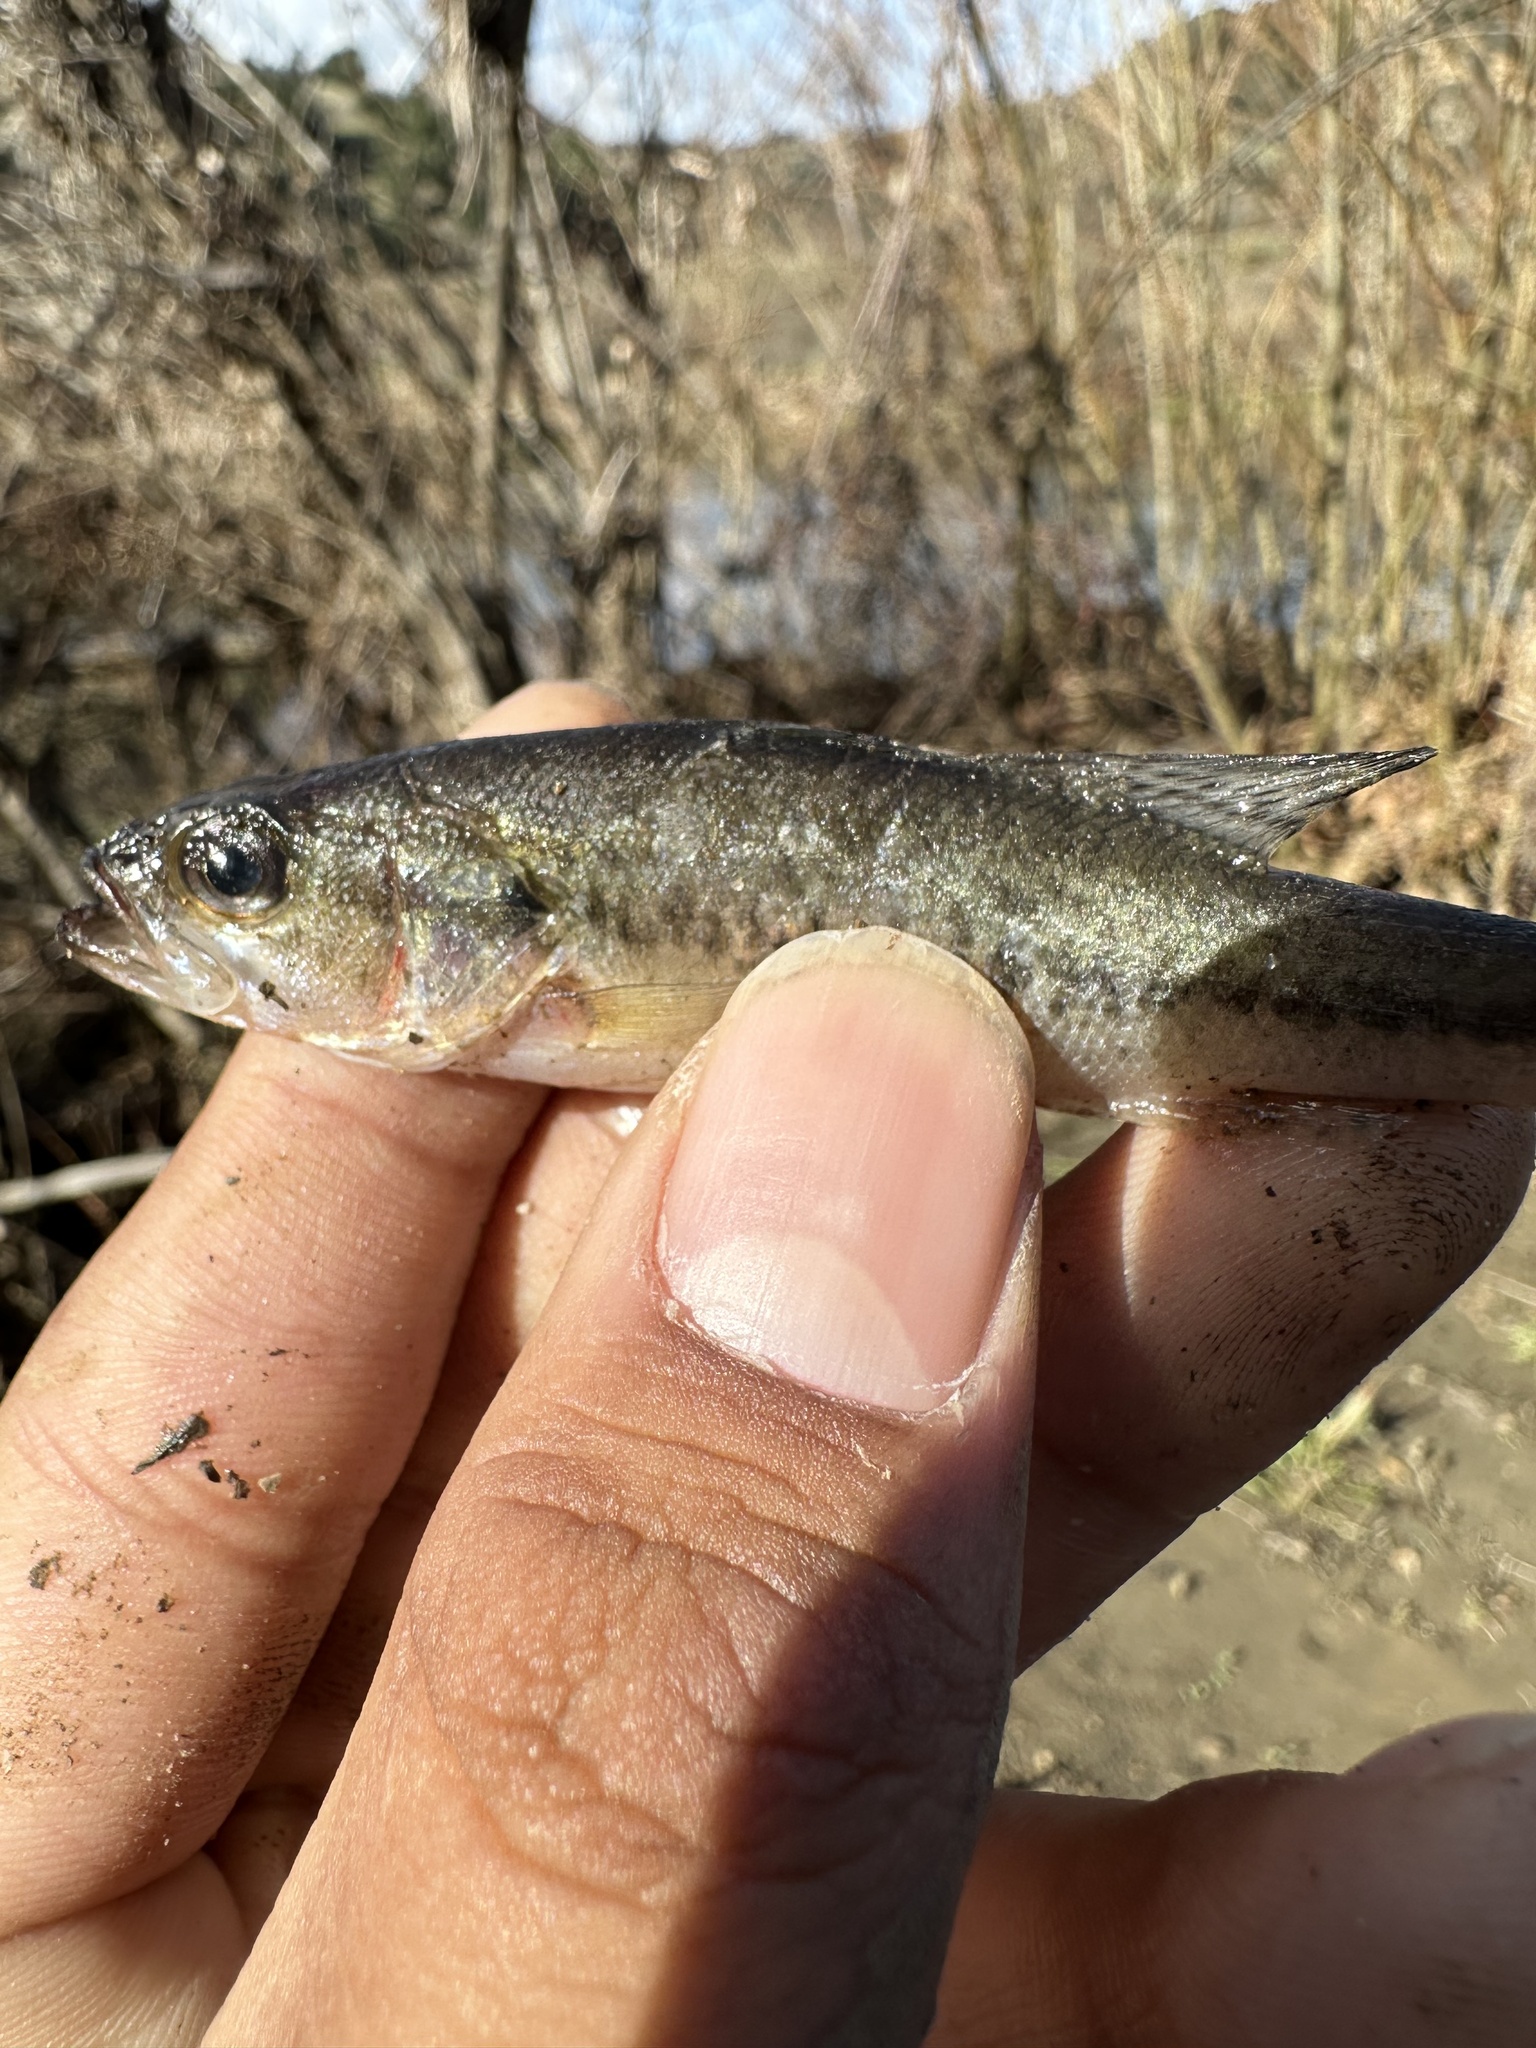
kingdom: Animalia
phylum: Chordata
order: Perciformes
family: Centrarchidae
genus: Micropterus
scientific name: Micropterus
